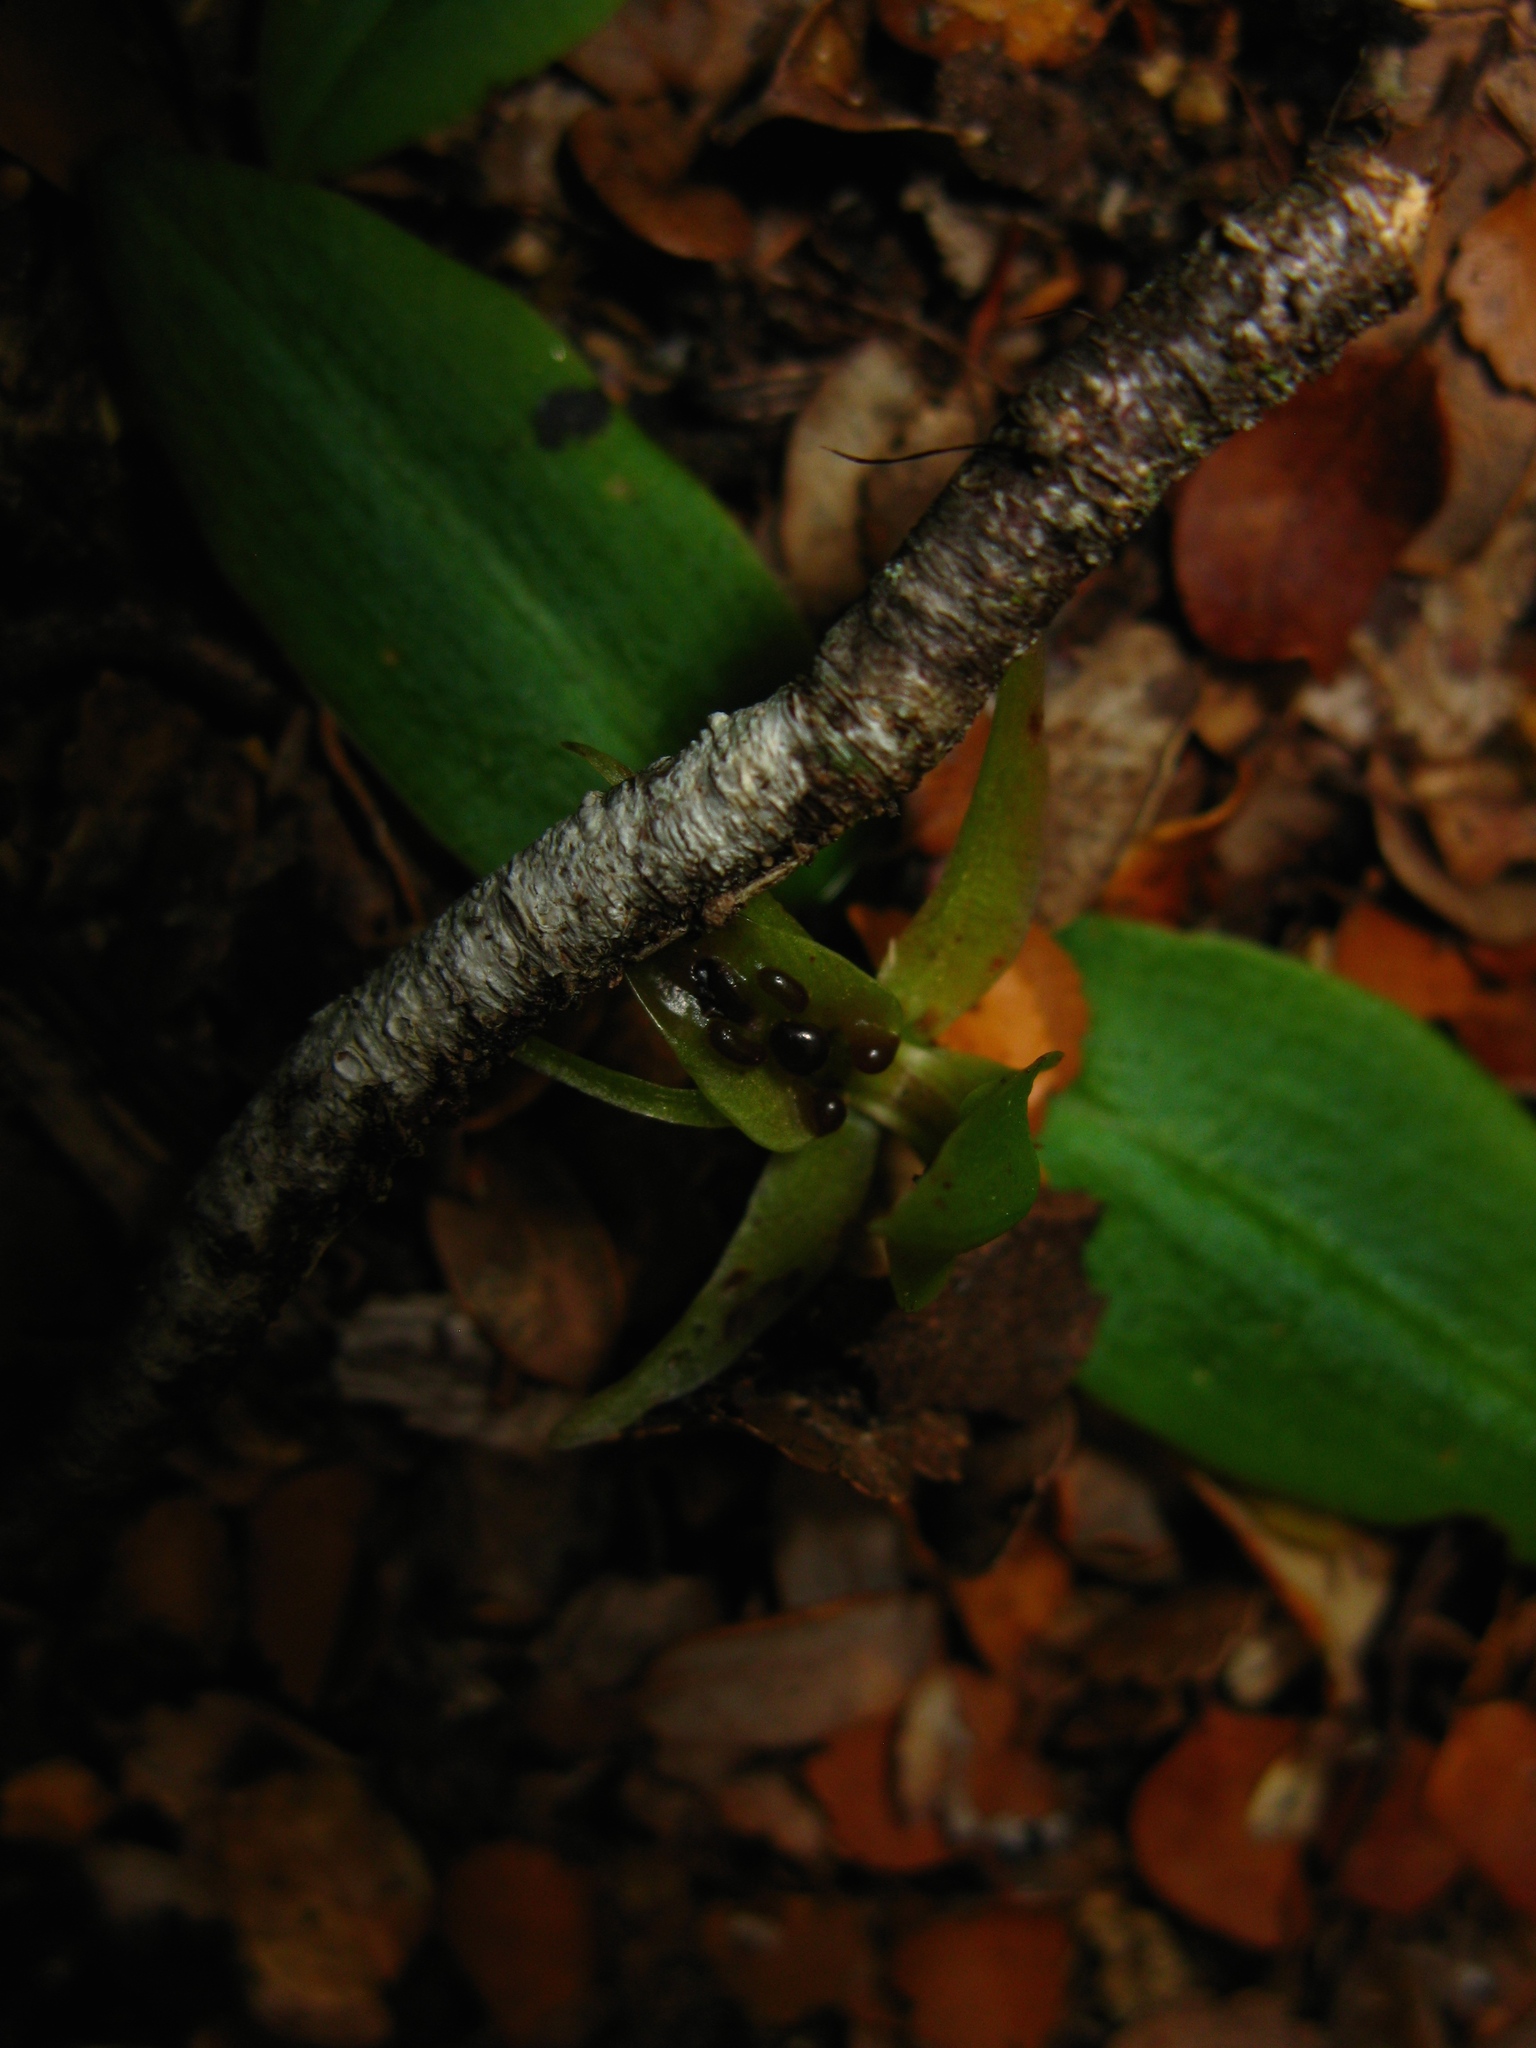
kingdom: Plantae
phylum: Tracheophyta
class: Liliopsida
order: Asparagales
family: Orchidaceae
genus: Chiloglottis
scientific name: Chiloglottis cornuta
